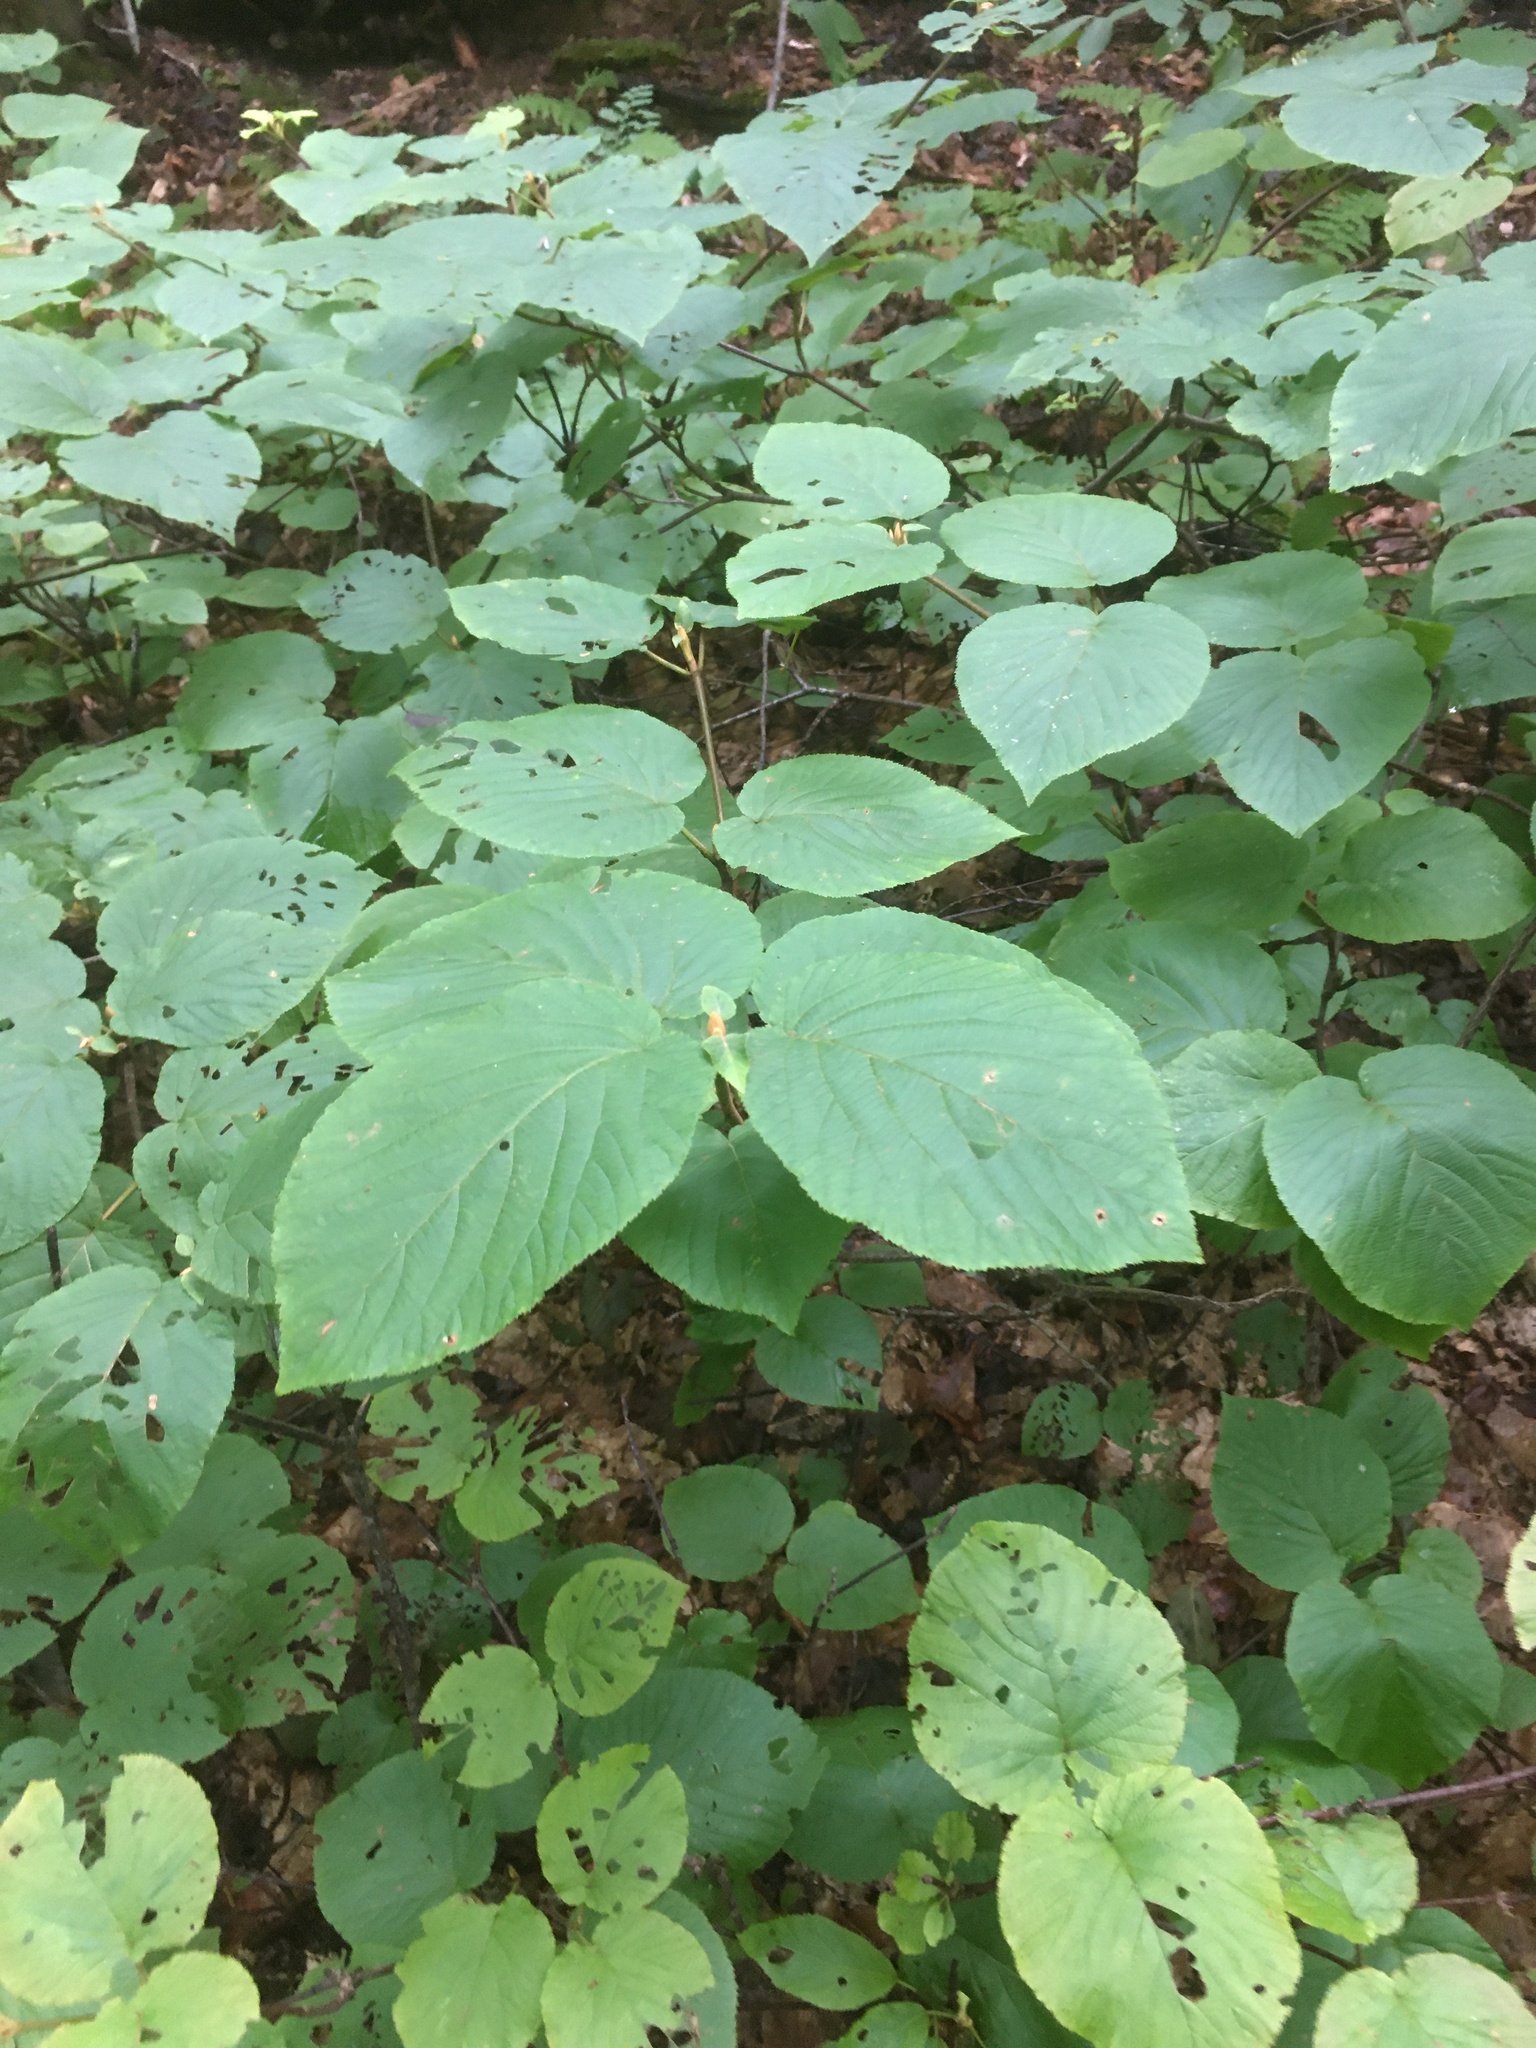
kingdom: Plantae
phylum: Tracheophyta
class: Magnoliopsida
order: Dipsacales
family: Viburnaceae
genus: Viburnum
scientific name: Viburnum lantanoides
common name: Hobblebush
